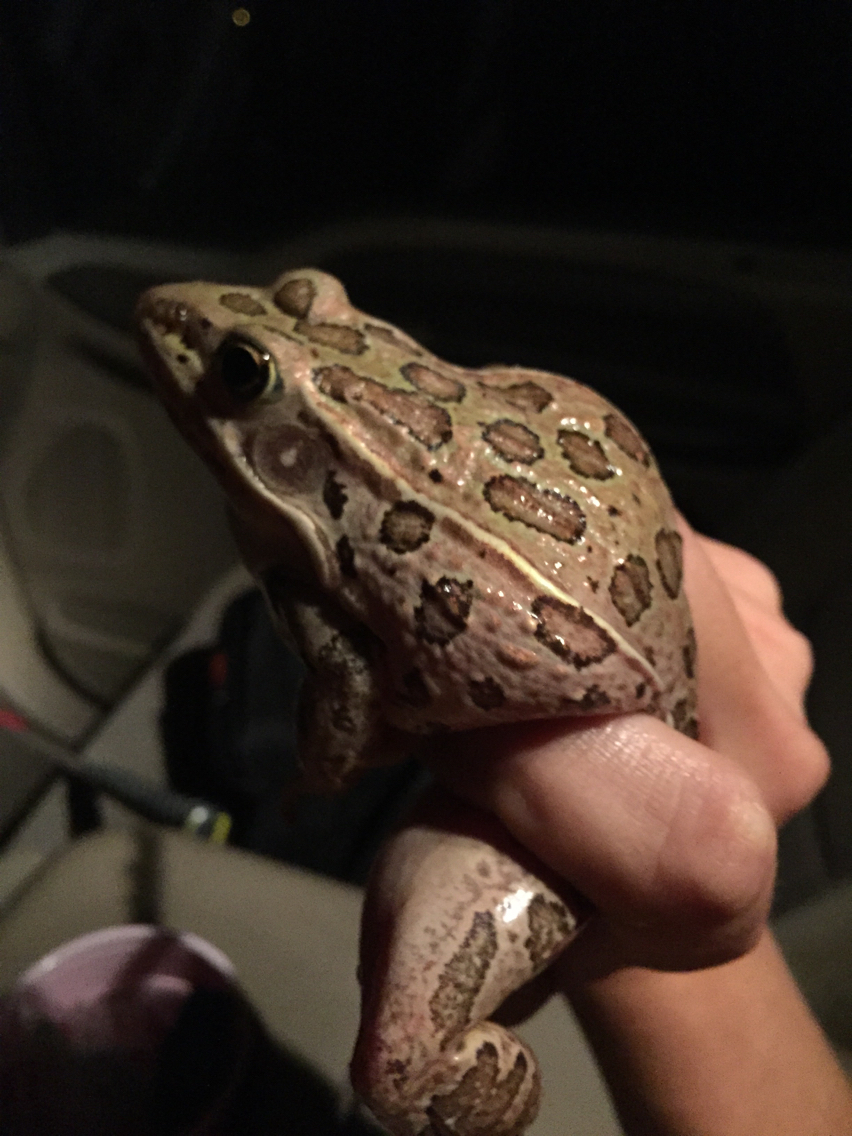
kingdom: Animalia
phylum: Chordata
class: Amphibia
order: Anura
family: Ranidae
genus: Lithobates
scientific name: Lithobates blairi
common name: Plains leopard frog
